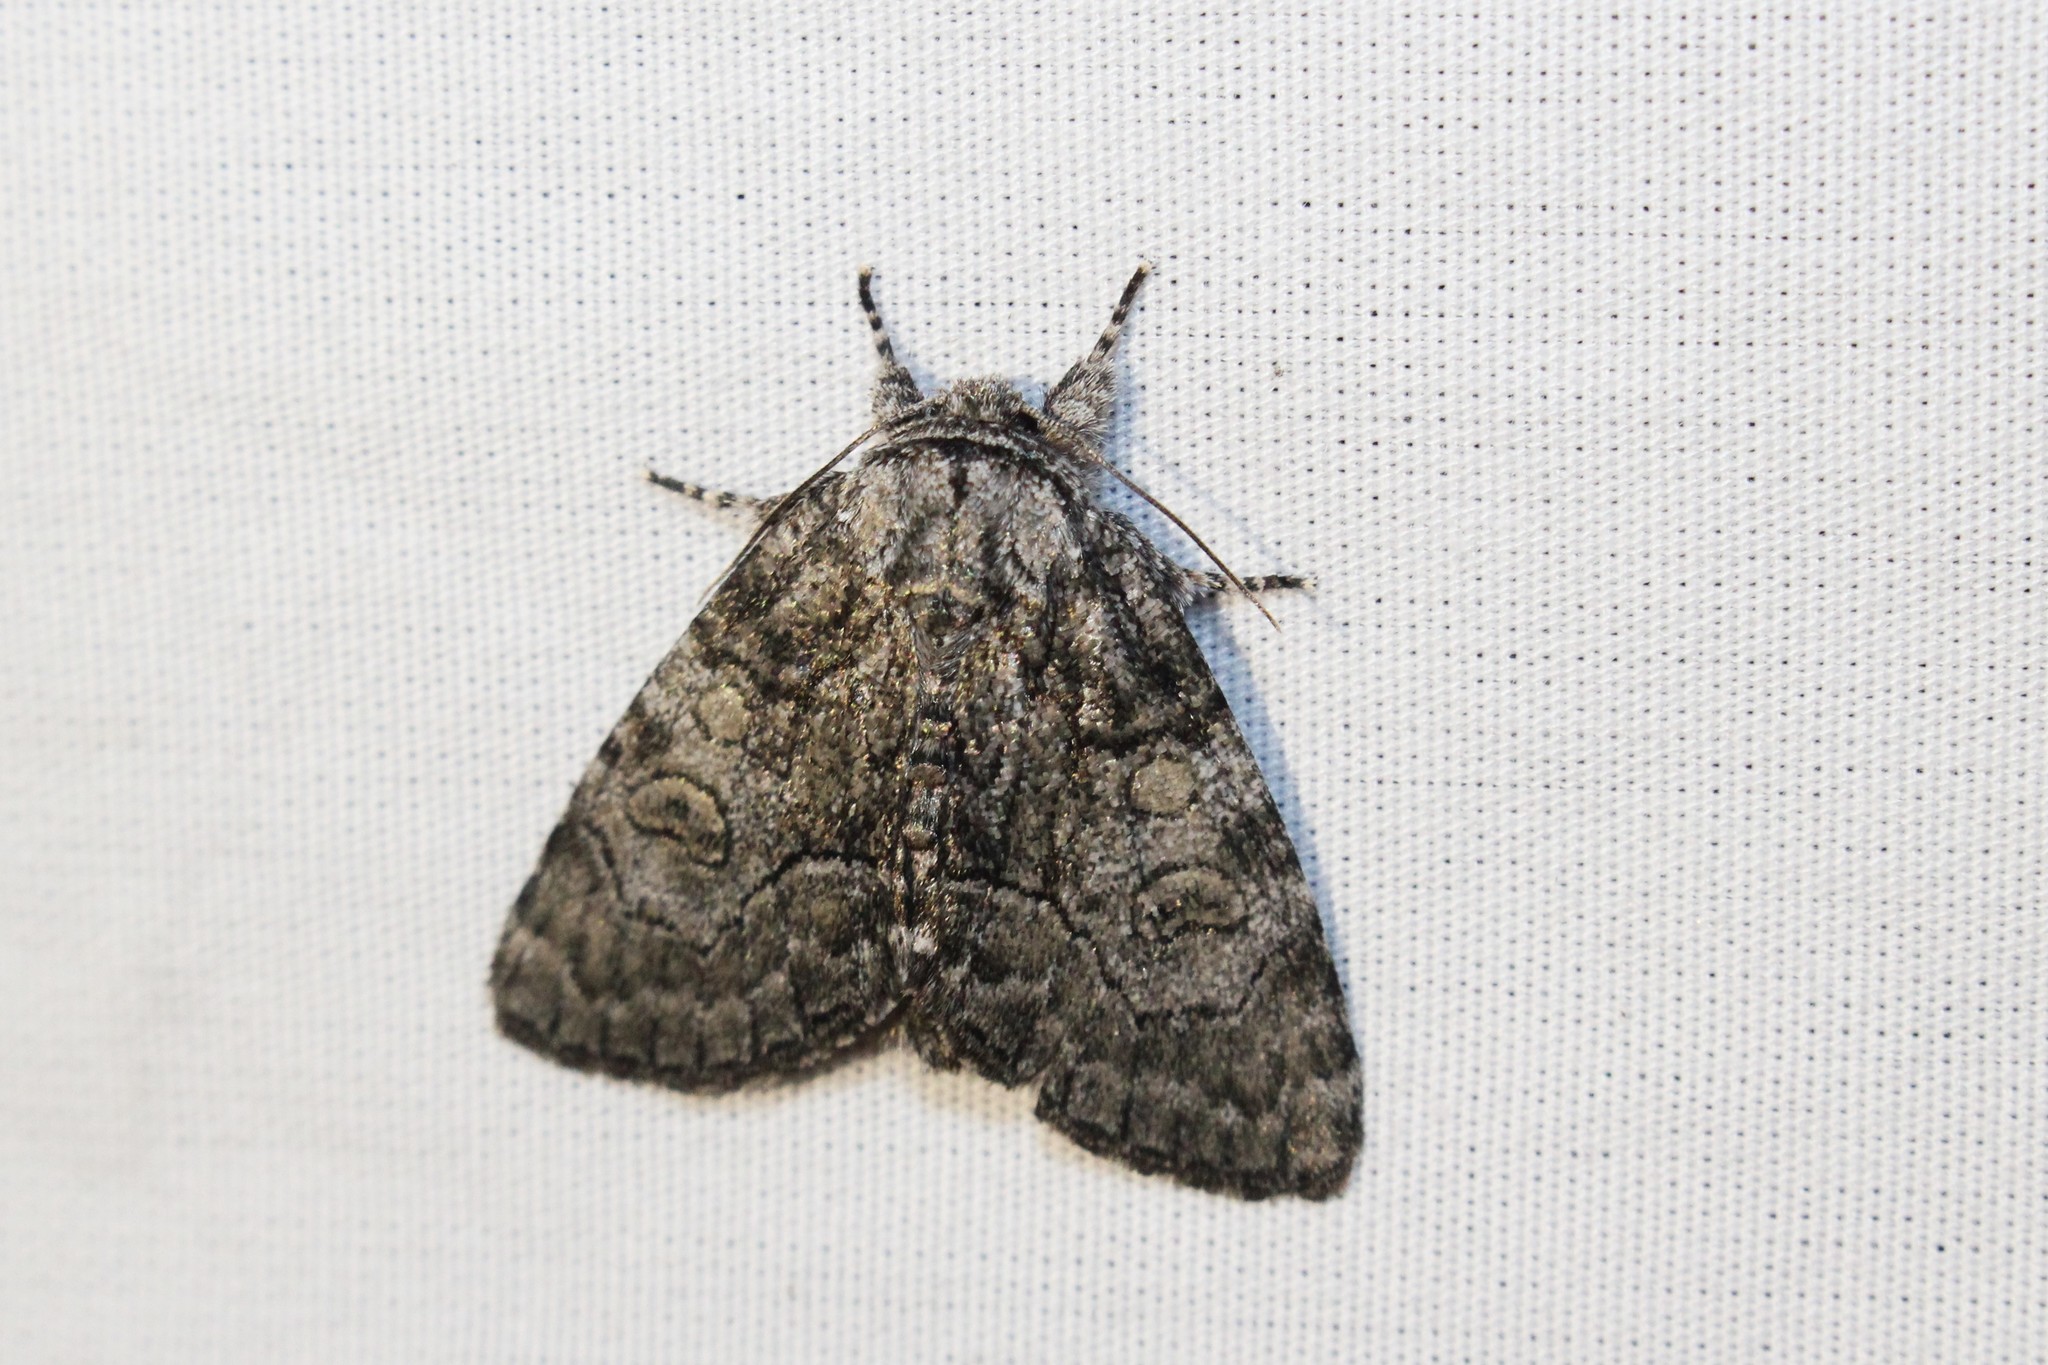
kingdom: Animalia
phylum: Arthropoda
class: Insecta
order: Lepidoptera
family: Noctuidae
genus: Raphia
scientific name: Raphia frater
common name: Brother
